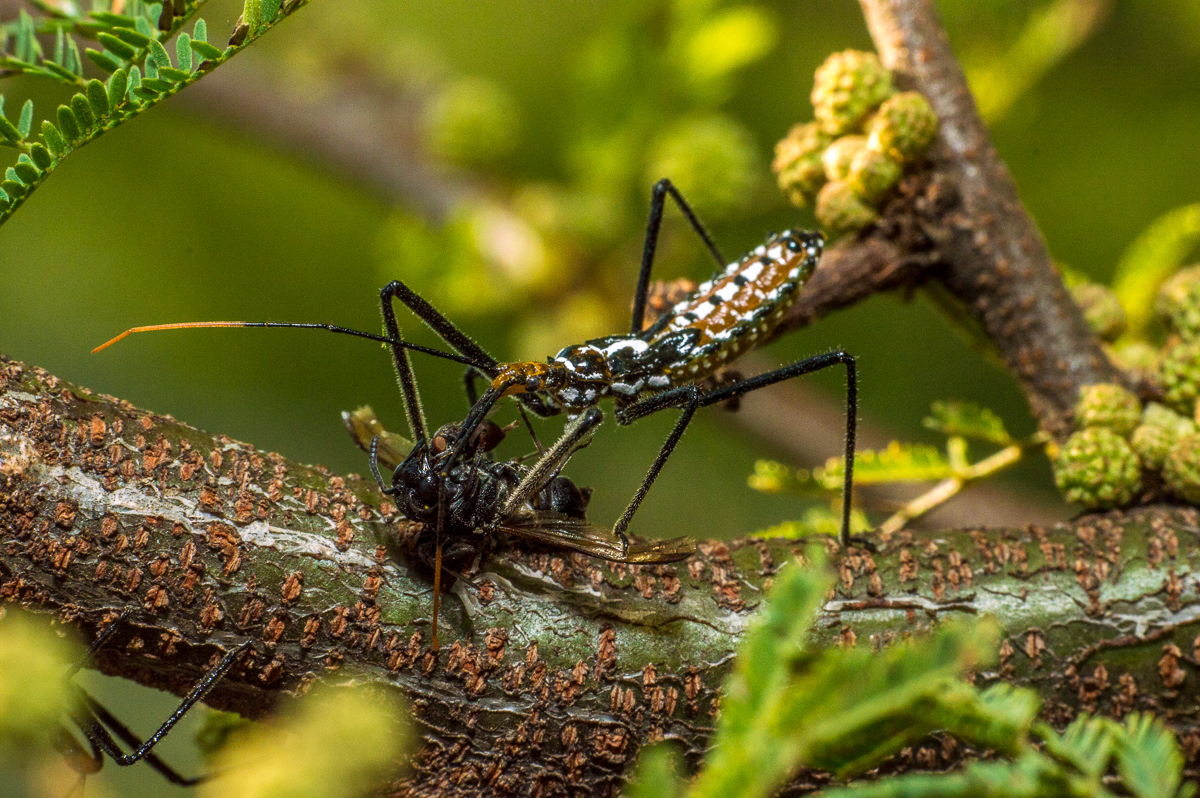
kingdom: Animalia
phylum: Arthropoda
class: Insecta
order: Hemiptera
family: Reduviidae
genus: Zelus
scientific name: Zelus leucogrammus
